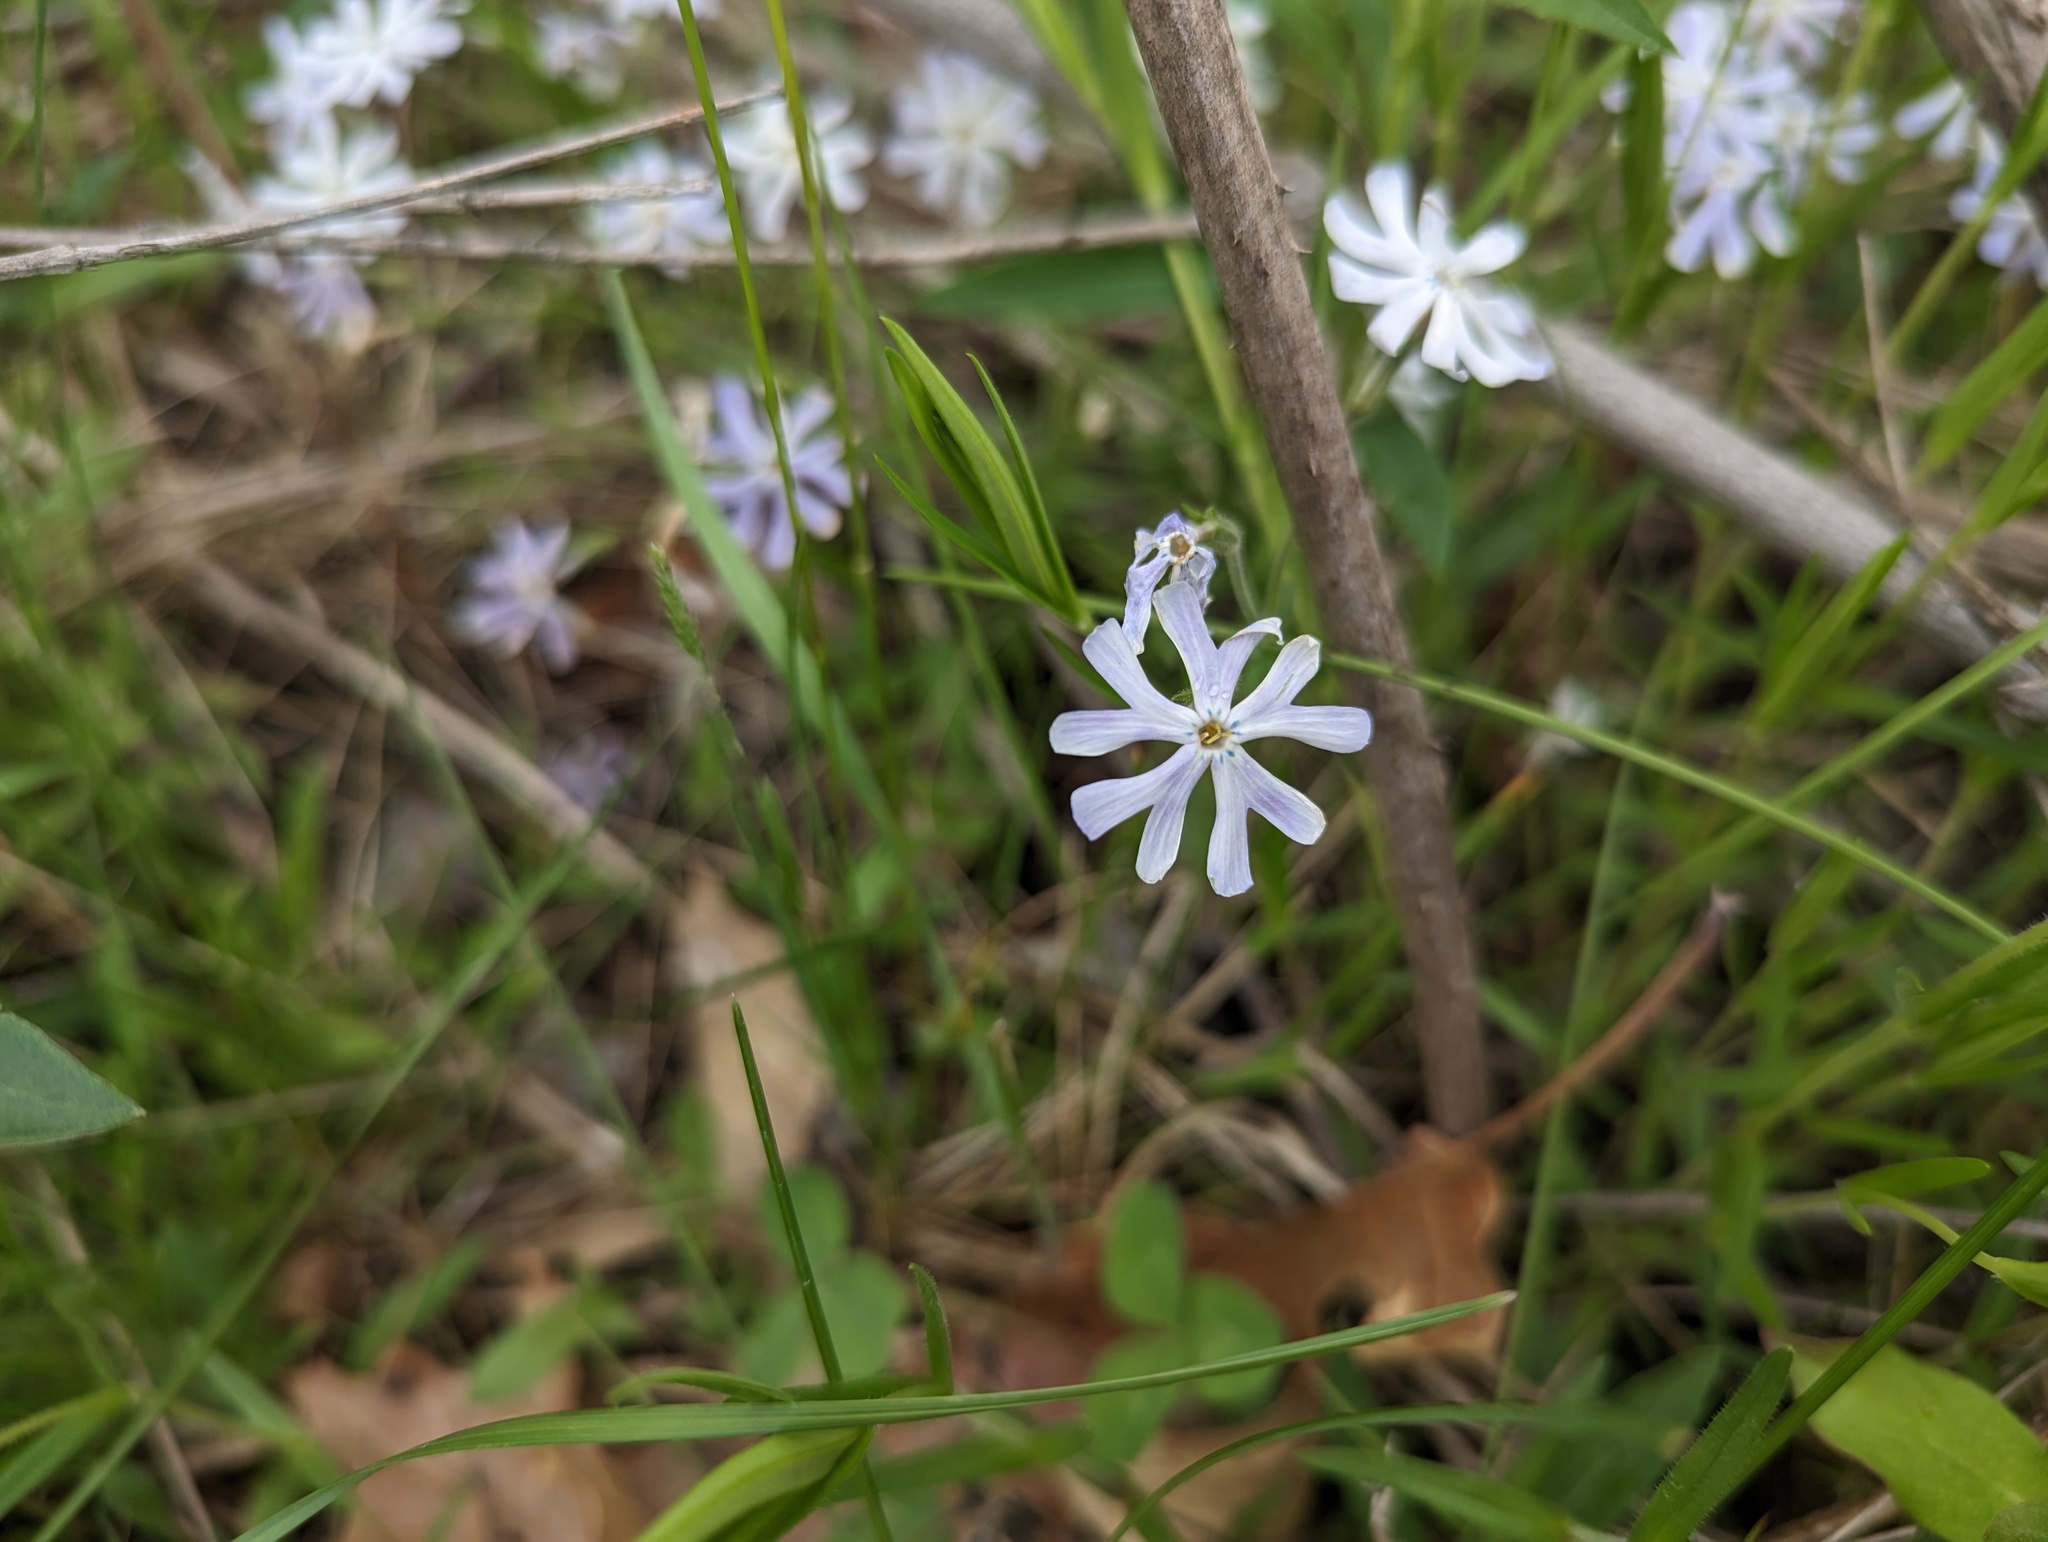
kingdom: Plantae
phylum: Tracheophyta
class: Magnoliopsida
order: Ericales
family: Polemoniaceae
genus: Phlox
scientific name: Phlox bifida
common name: Sand phlox
